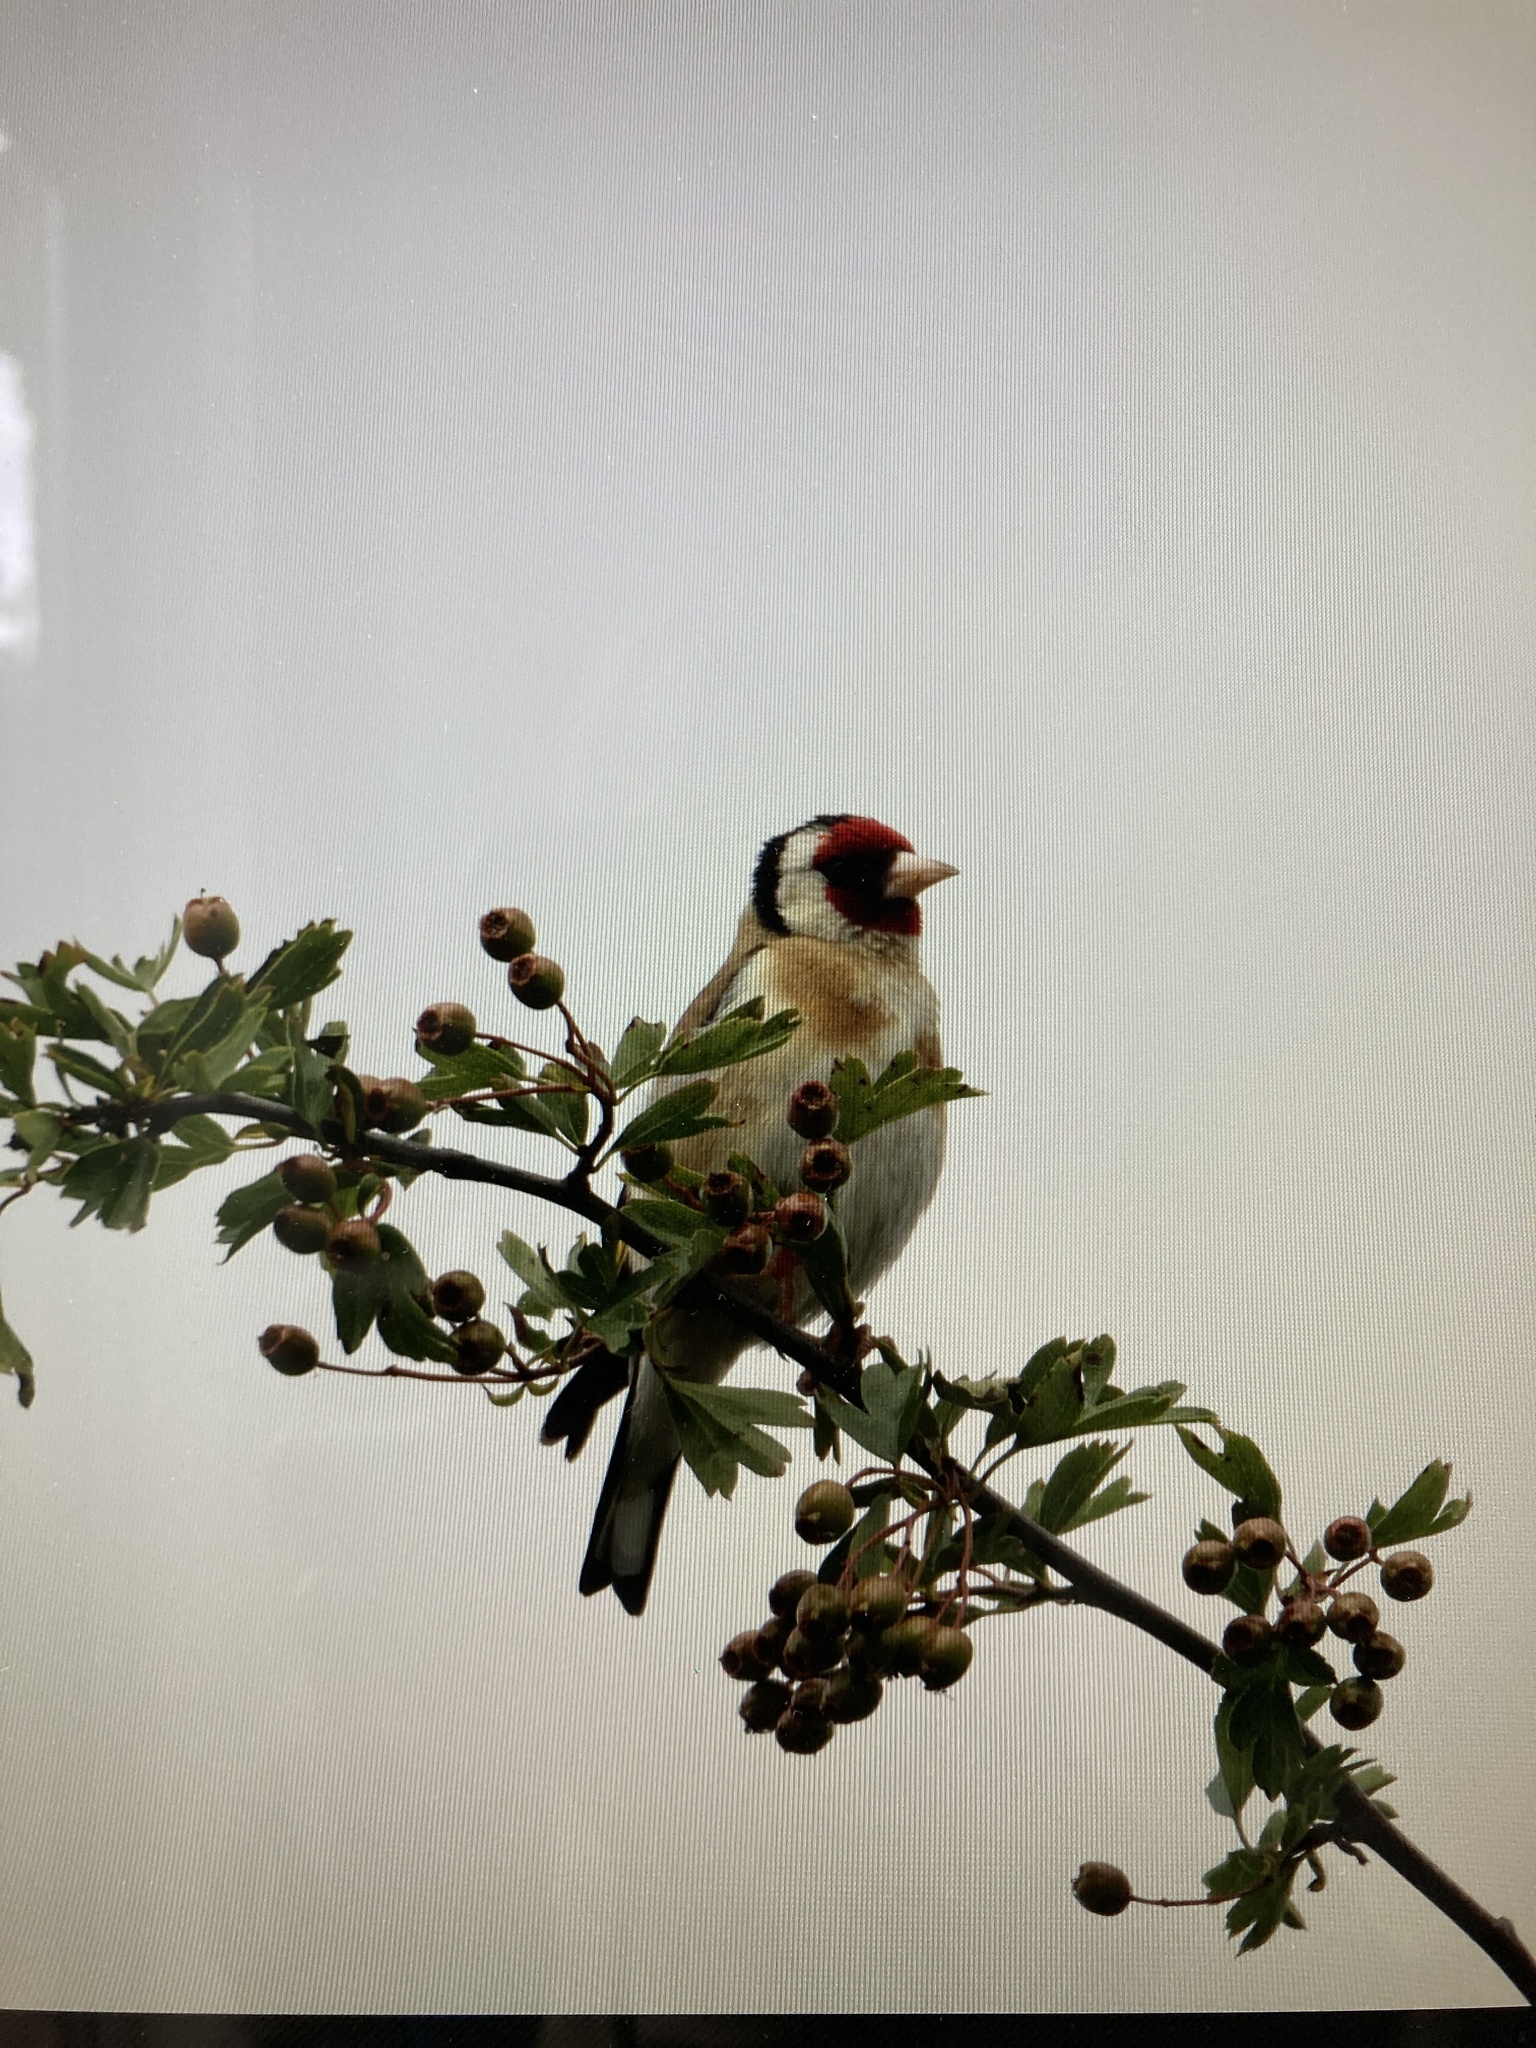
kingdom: Animalia
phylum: Chordata
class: Aves
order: Passeriformes
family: Fringillidae
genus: Carduelis
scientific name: Carduelis carduelis
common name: European goldfinch
